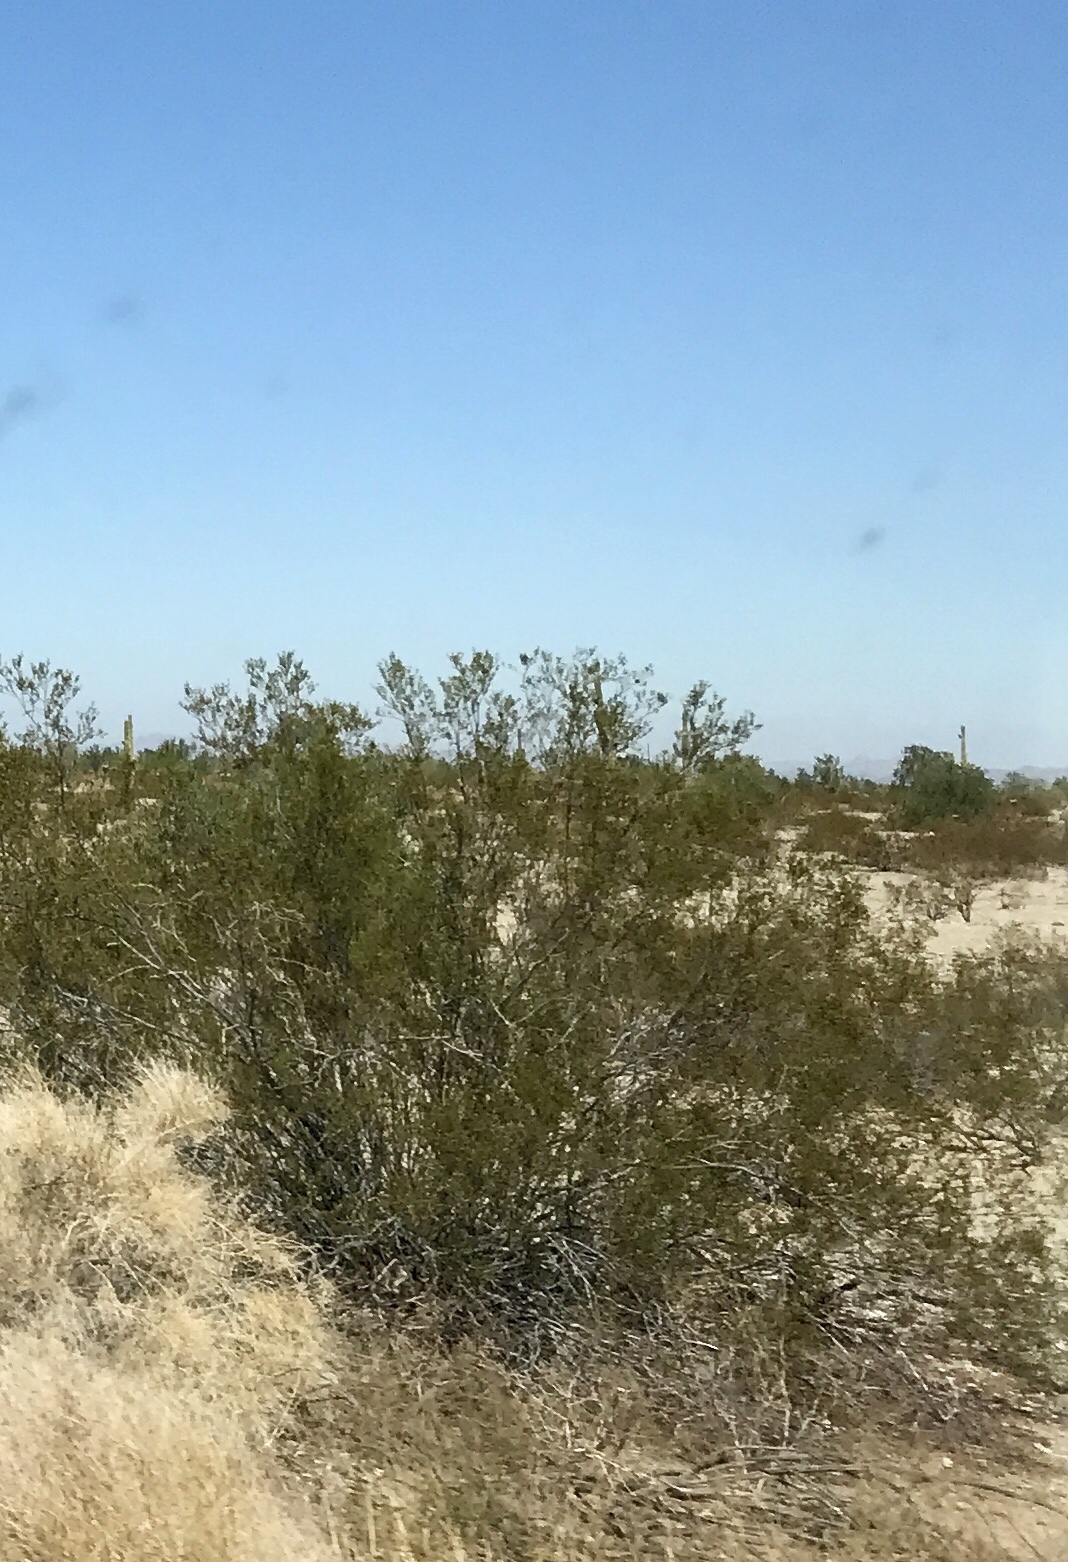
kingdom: Plantae
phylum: Tracheophyta
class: Magnoliopsida
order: Zygophyllales
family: Zygophyllaceae
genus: Larrea
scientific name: Larrea tridentata
